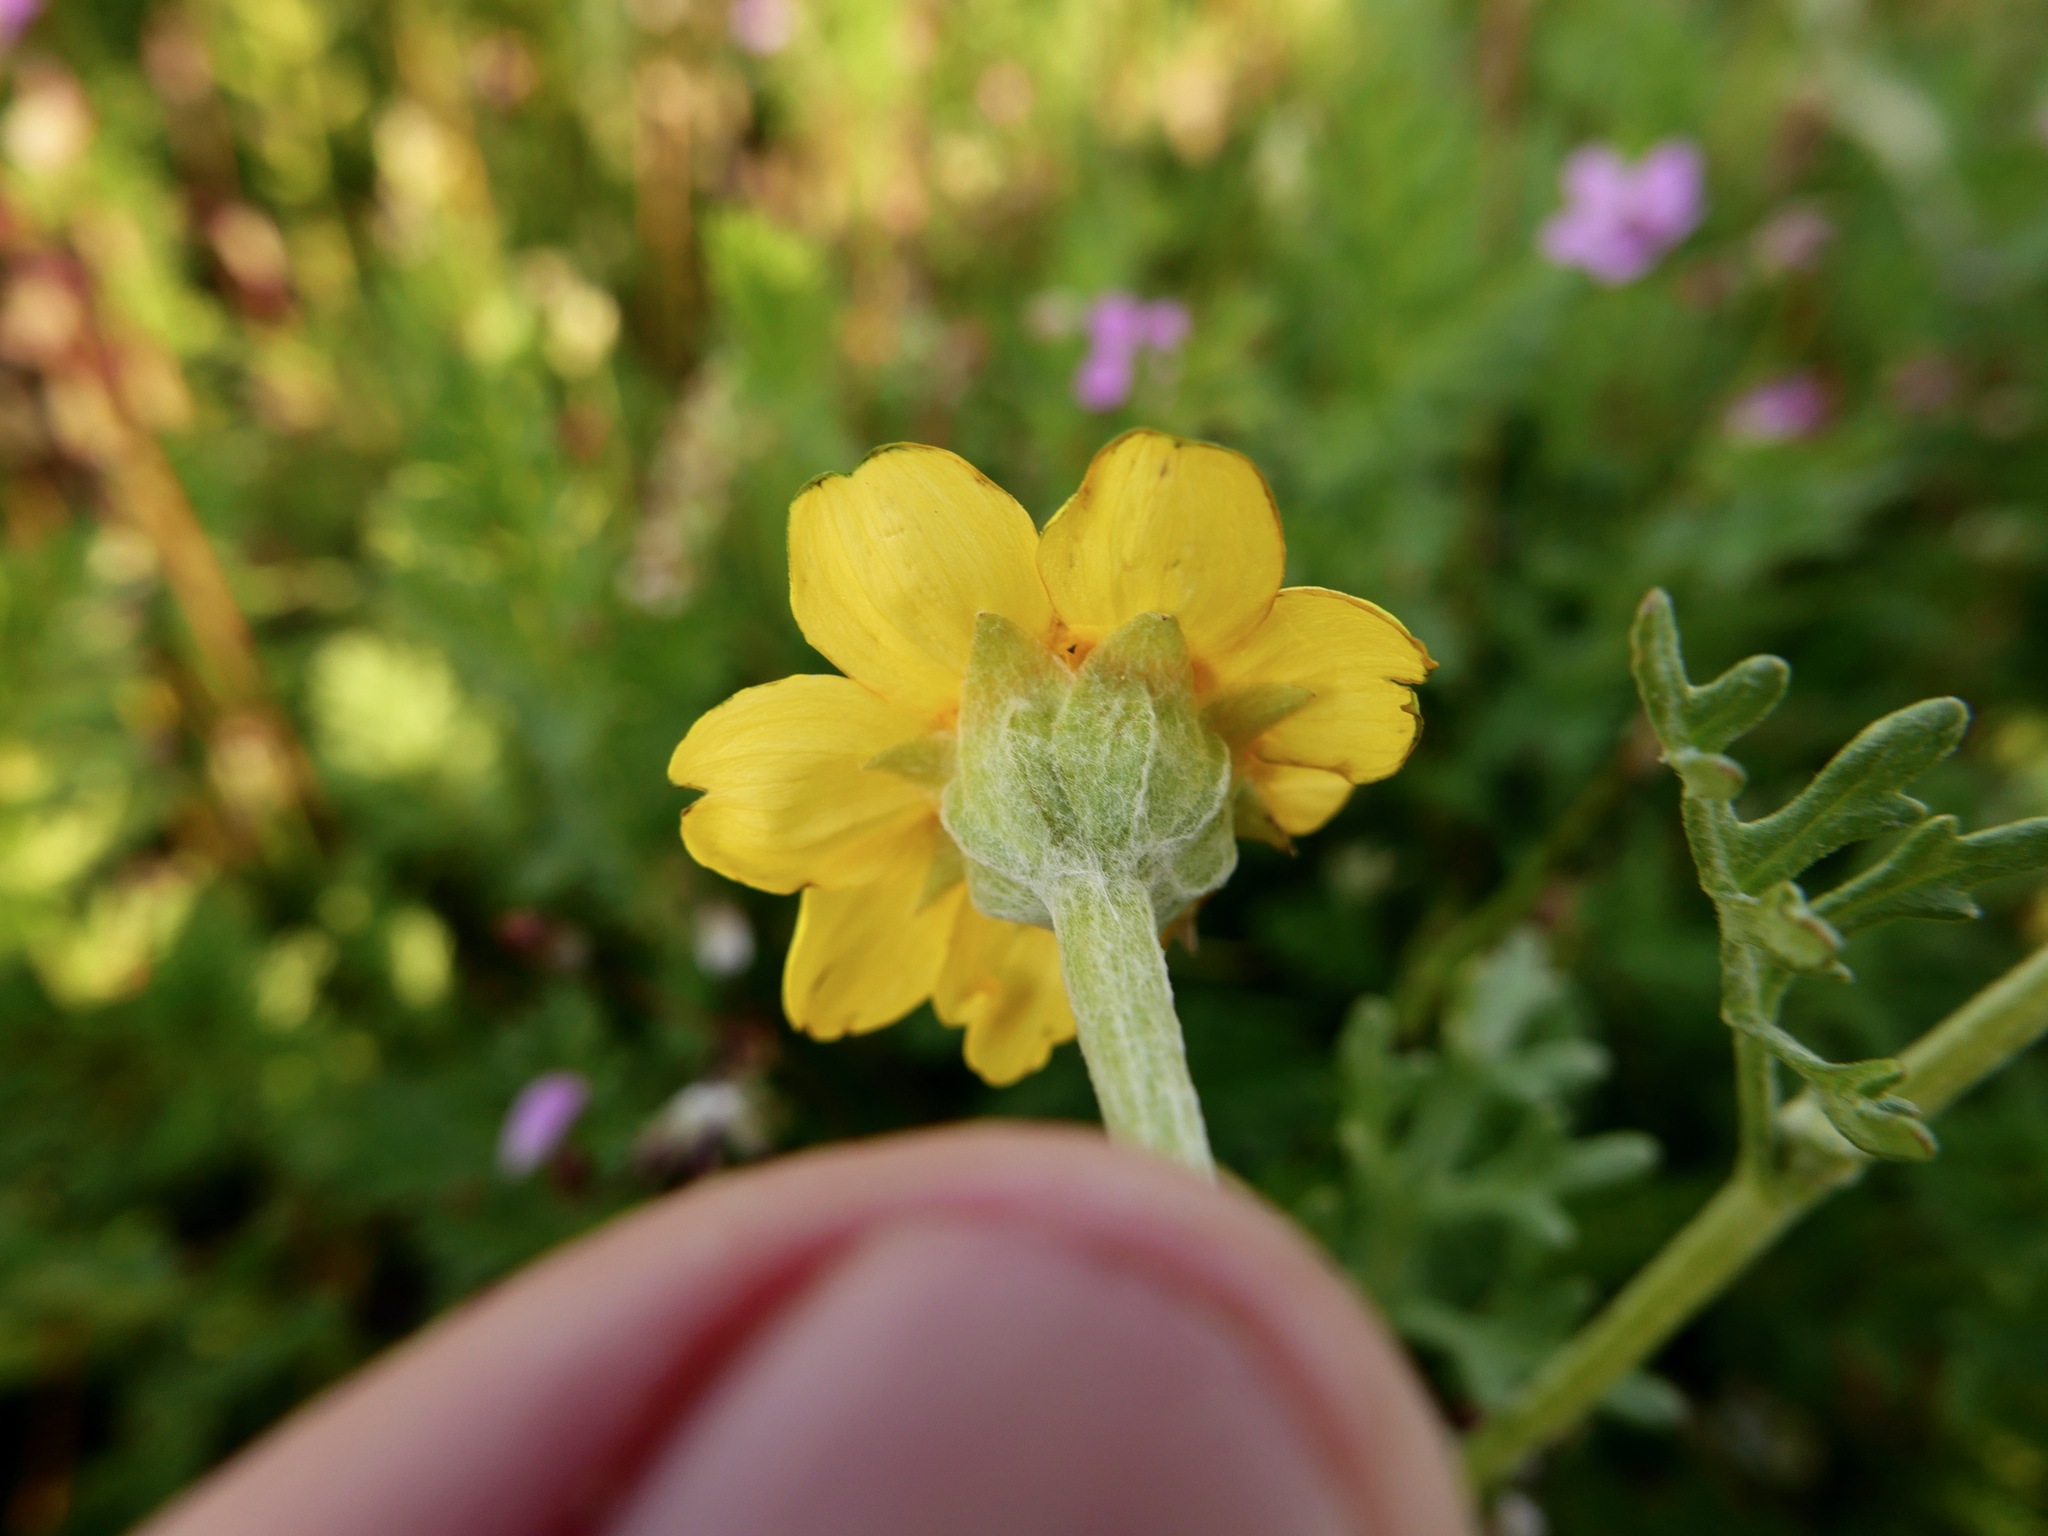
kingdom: Plantae
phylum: Tracheophyta
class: Magnoliopsida
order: Asterales
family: Asteraceae
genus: Pseudobahia
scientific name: Pseudobahia peirsonii
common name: Tulare psudobahia
